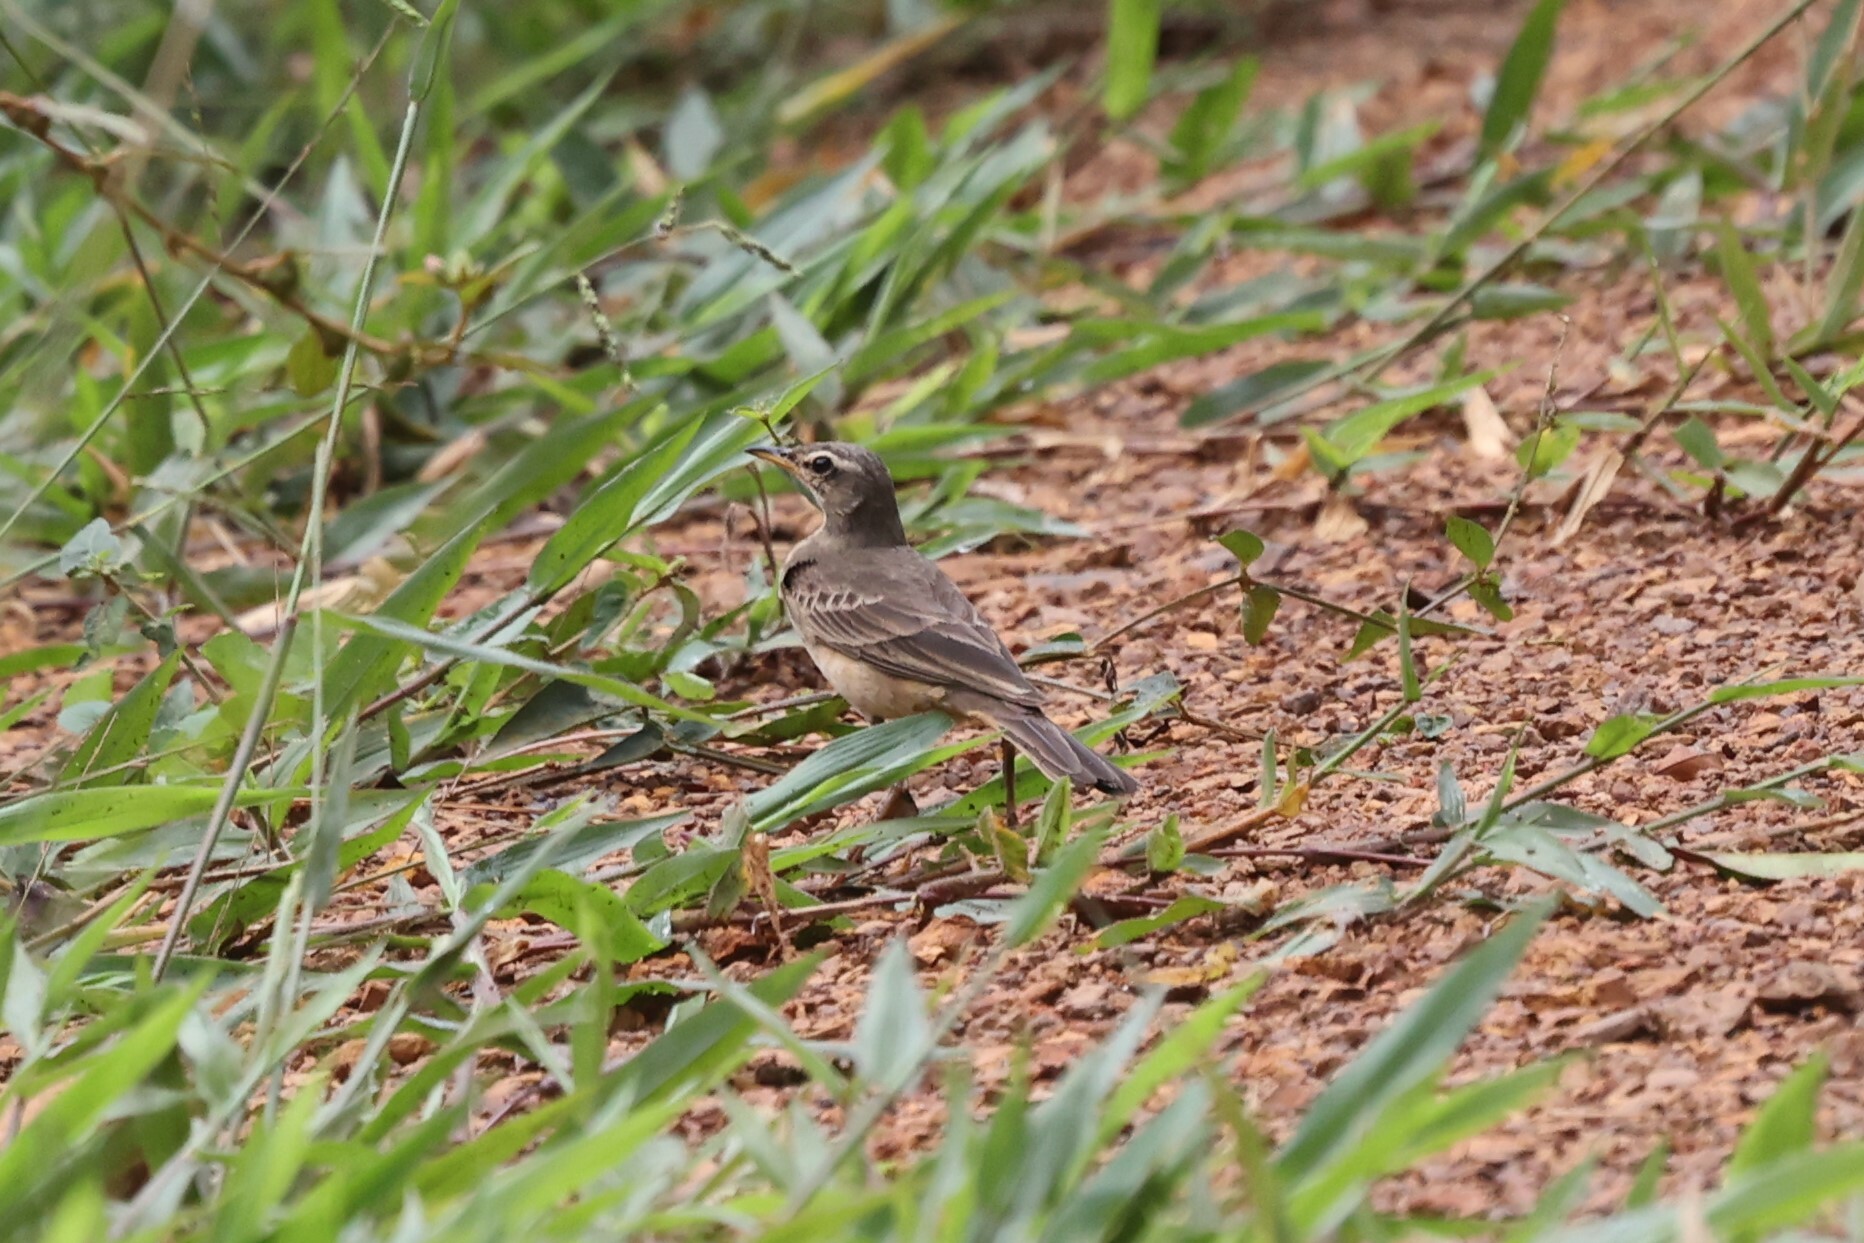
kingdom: Animalia
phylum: Chordata
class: Aves
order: Passeriformes
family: Motacillidae
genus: Anthus
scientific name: Anthus leucophrys
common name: Plain-backed pipit
